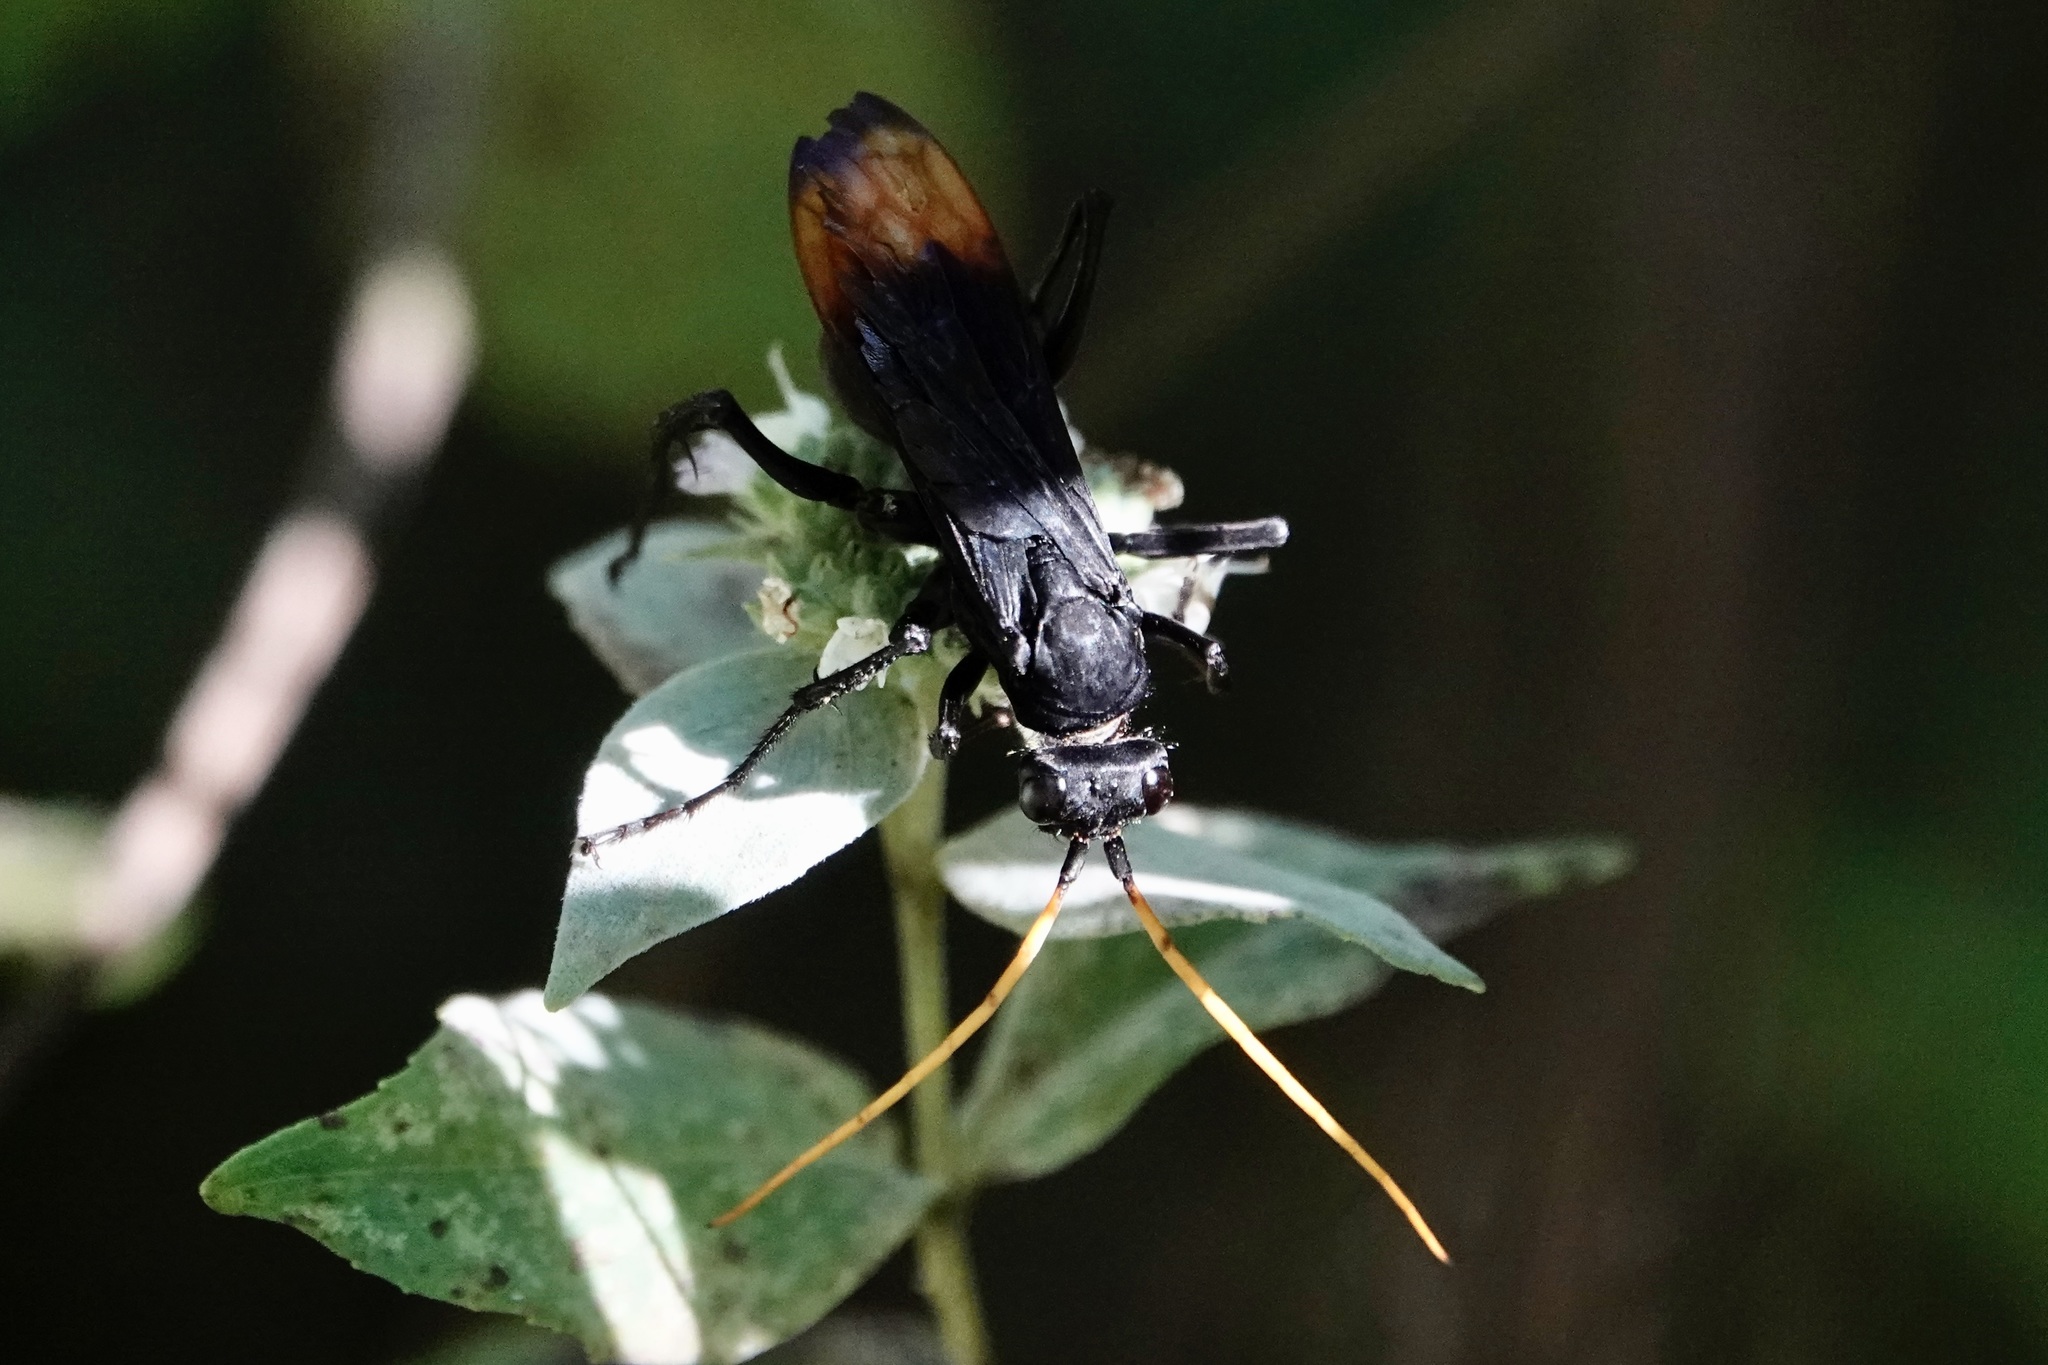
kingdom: Animalia
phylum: Arthropoda
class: Insecta
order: Hymenoptera
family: Pompilidae
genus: Entypus
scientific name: Entypus unifasciatus
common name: Eastern tawny-horned spider wasp
